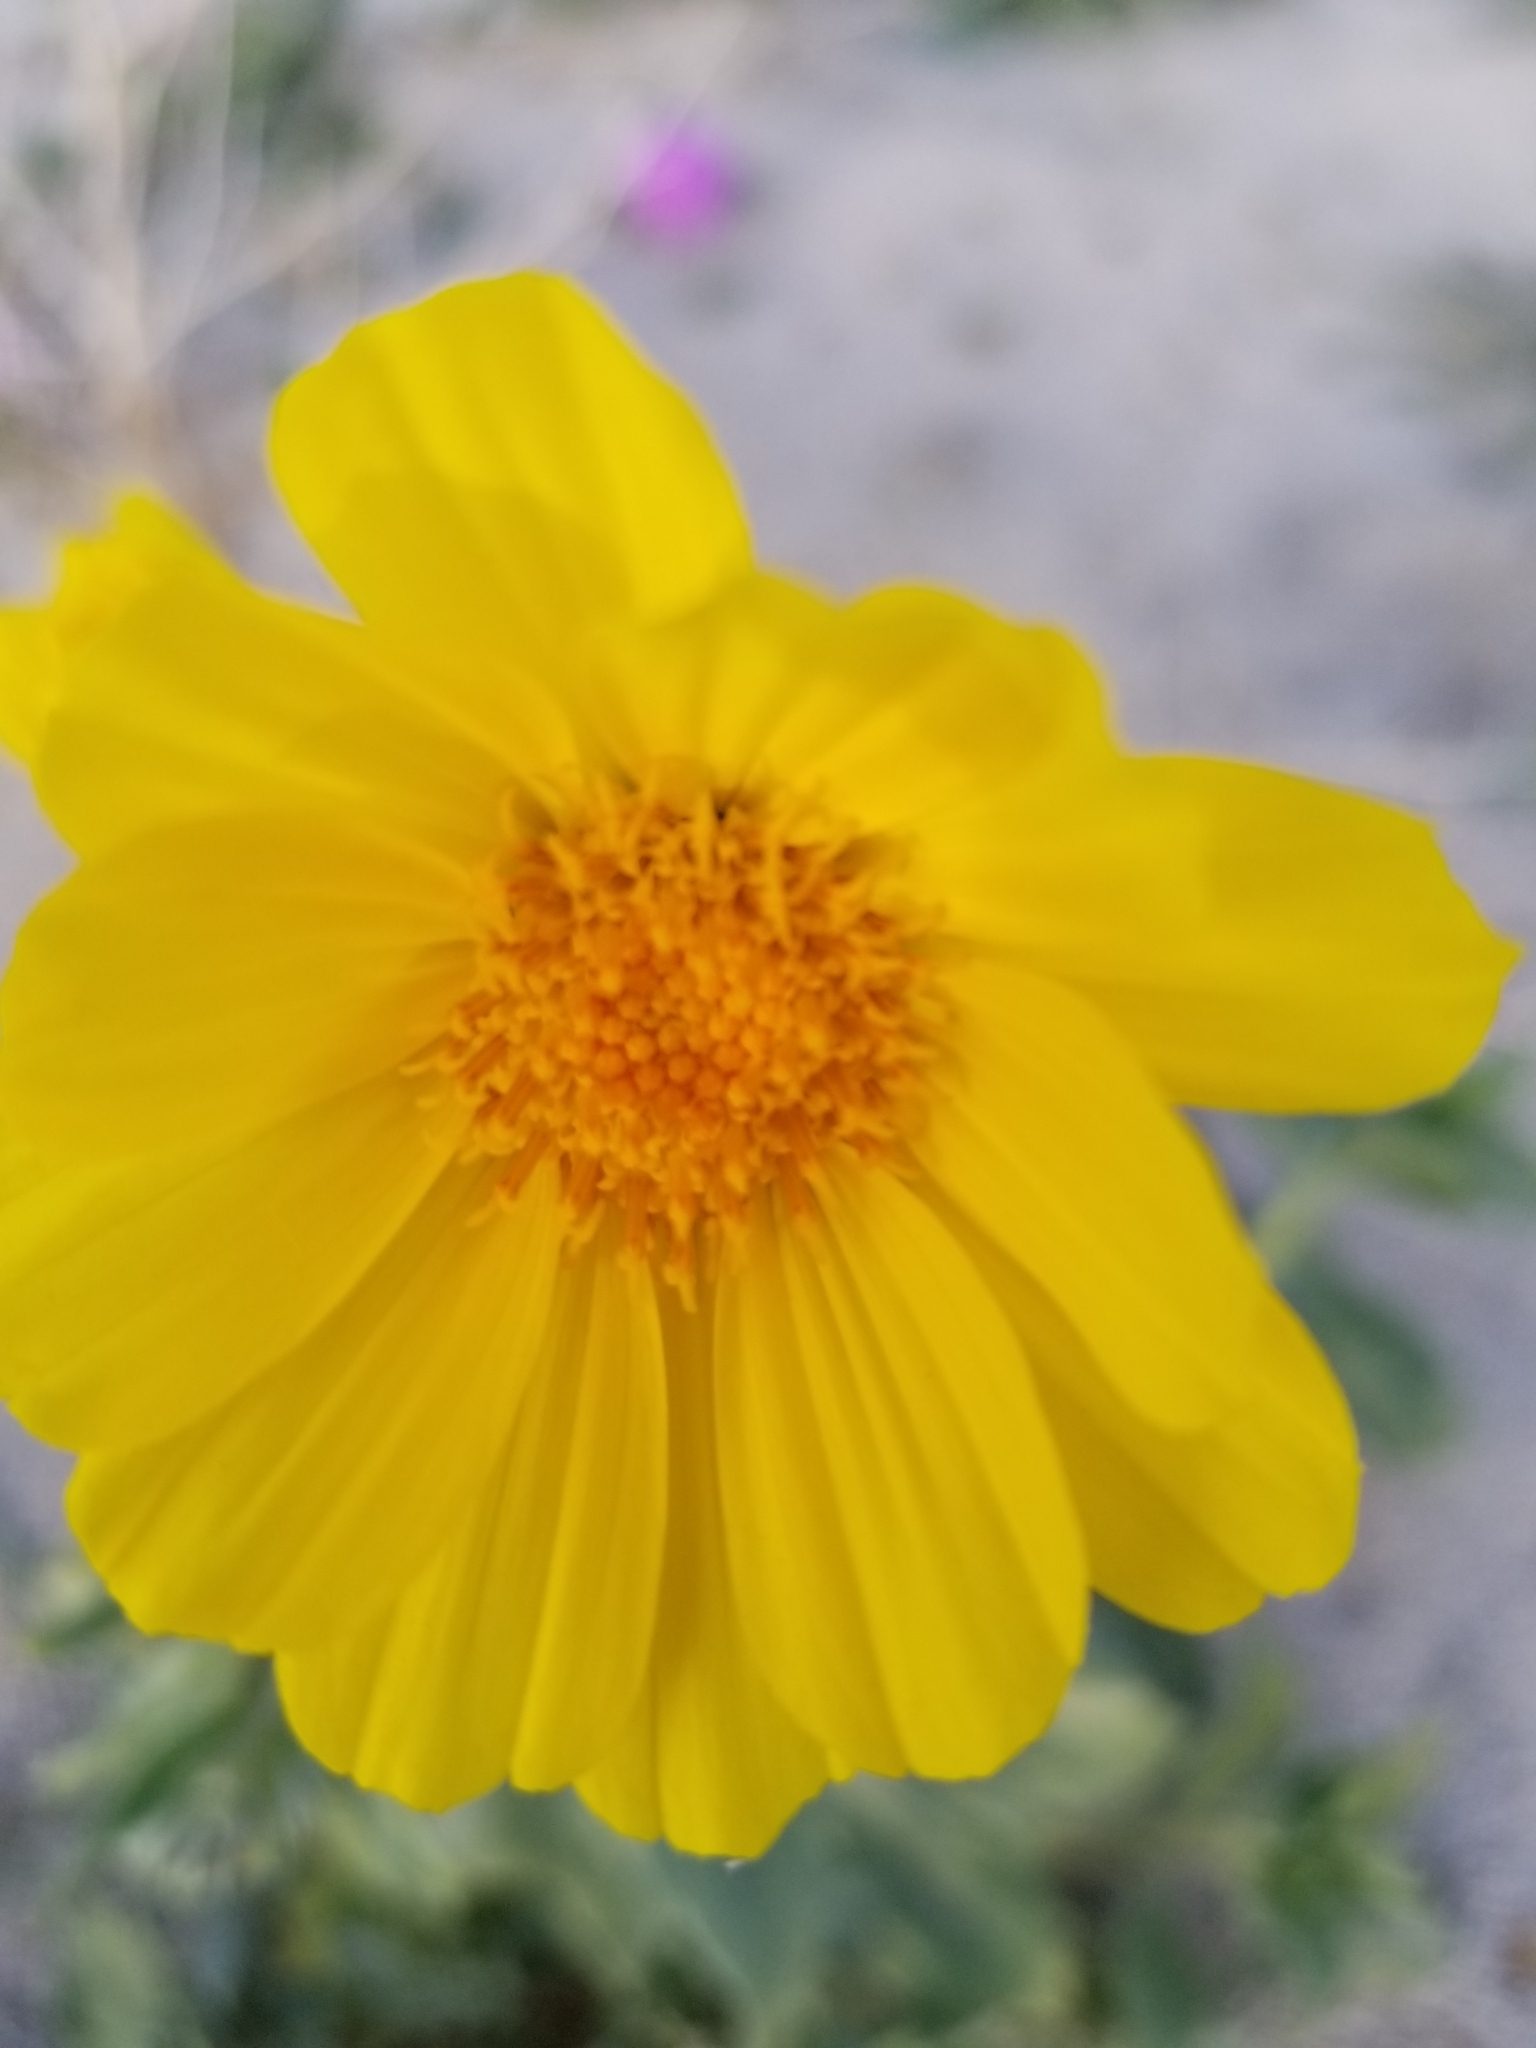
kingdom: Plantae
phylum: Tracheophyta
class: Magnoliopsida
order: Asterales
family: Asteraceae
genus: Geraea
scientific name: Geraea canescens
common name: Desert-gold
